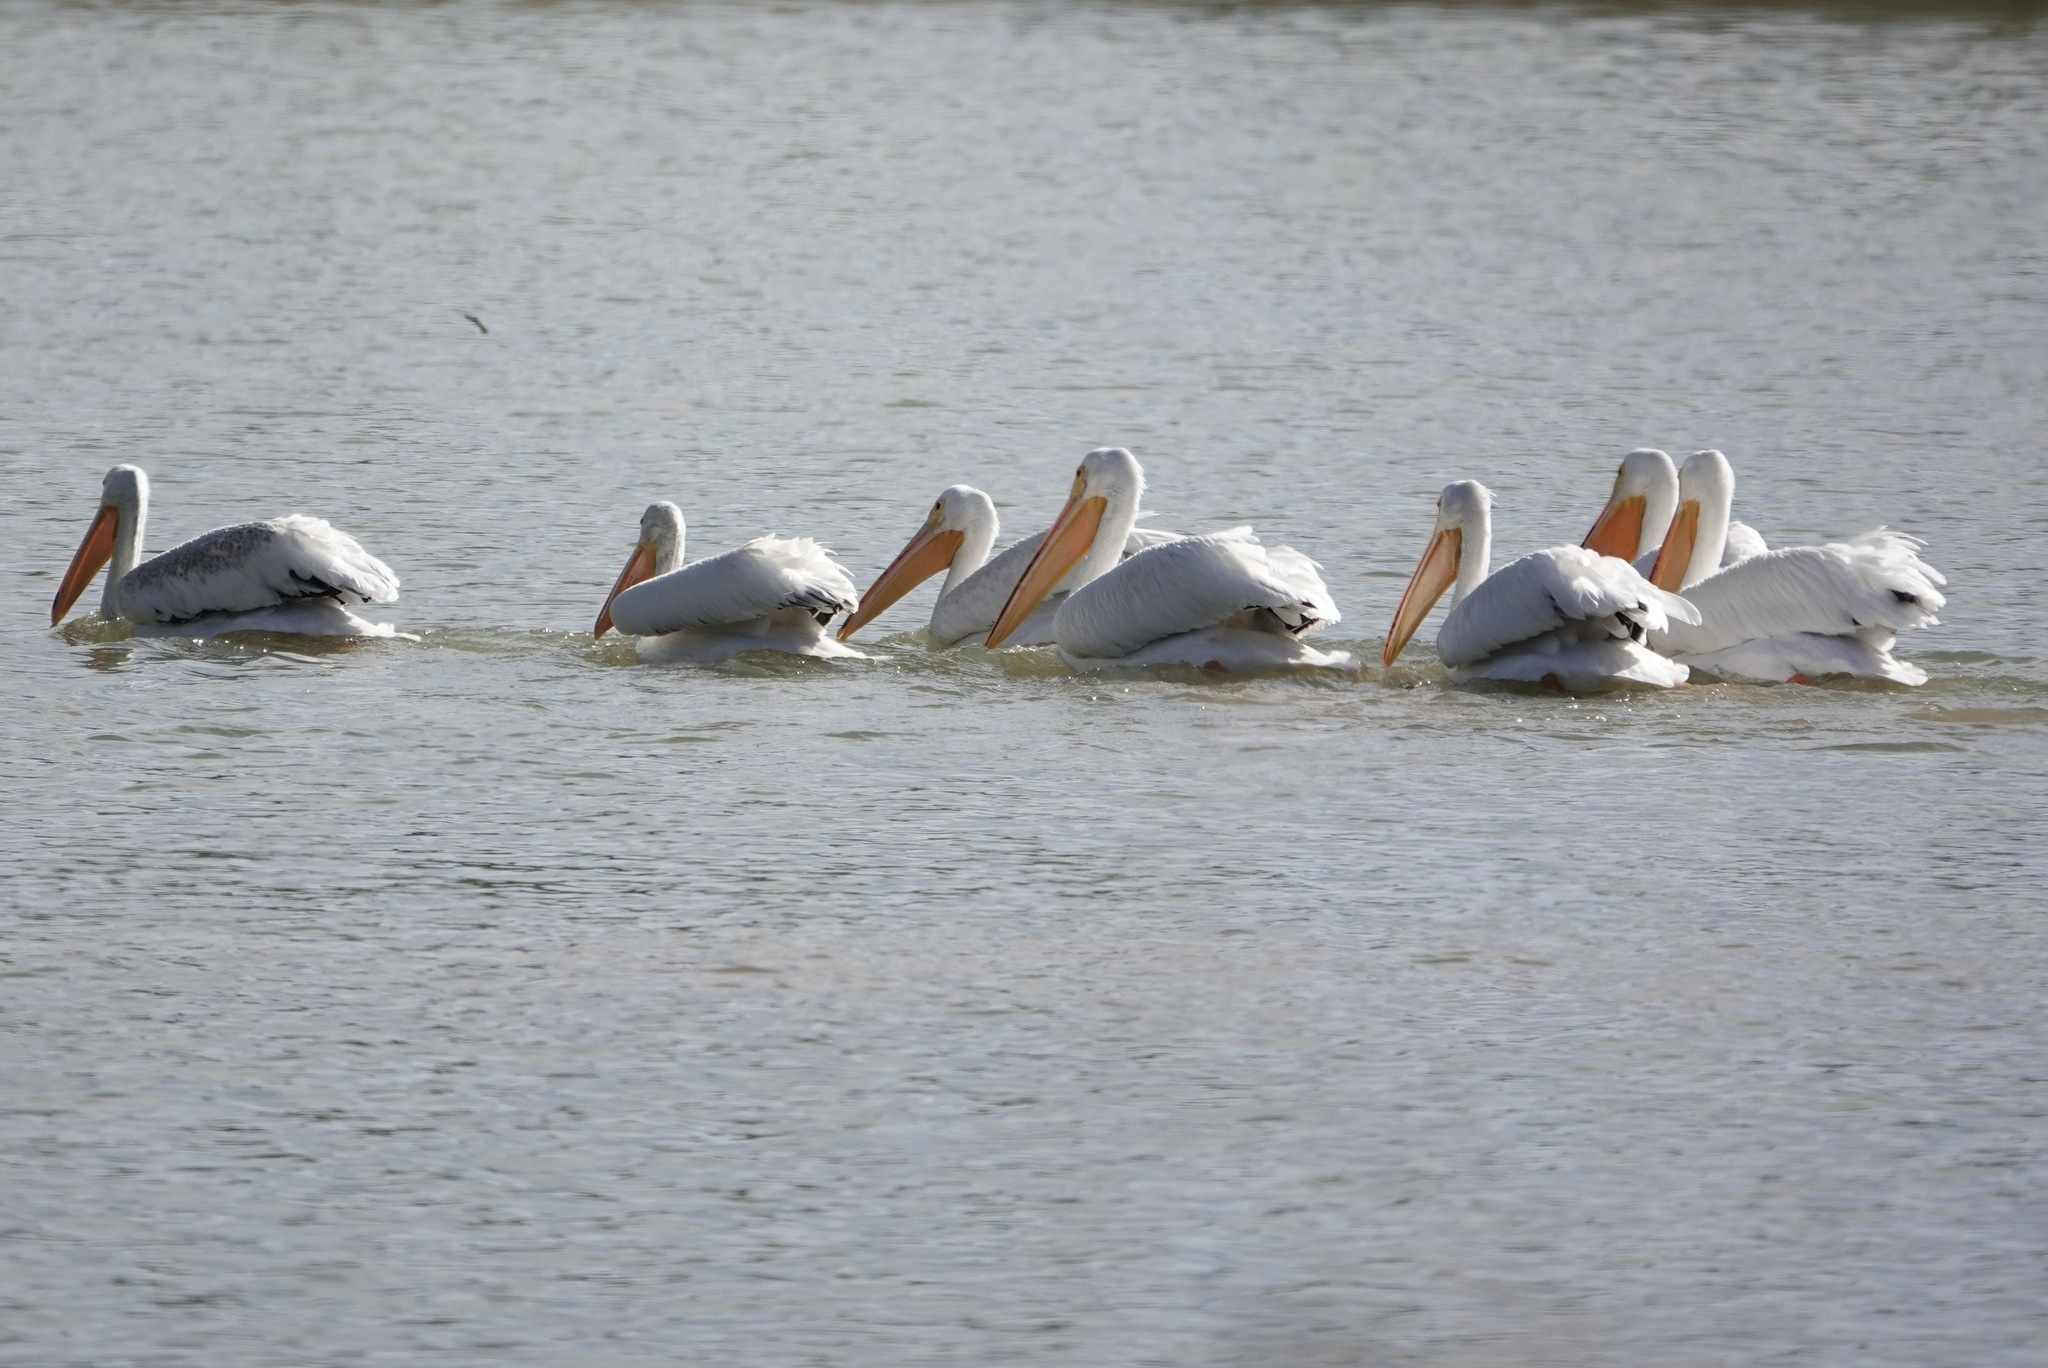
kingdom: Animalia
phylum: Chordata
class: Aves
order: Pelecaniformes
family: Pelecanidae
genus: Pelecanus
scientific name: Pelecanus erythrorhynchos
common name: American white pelican
